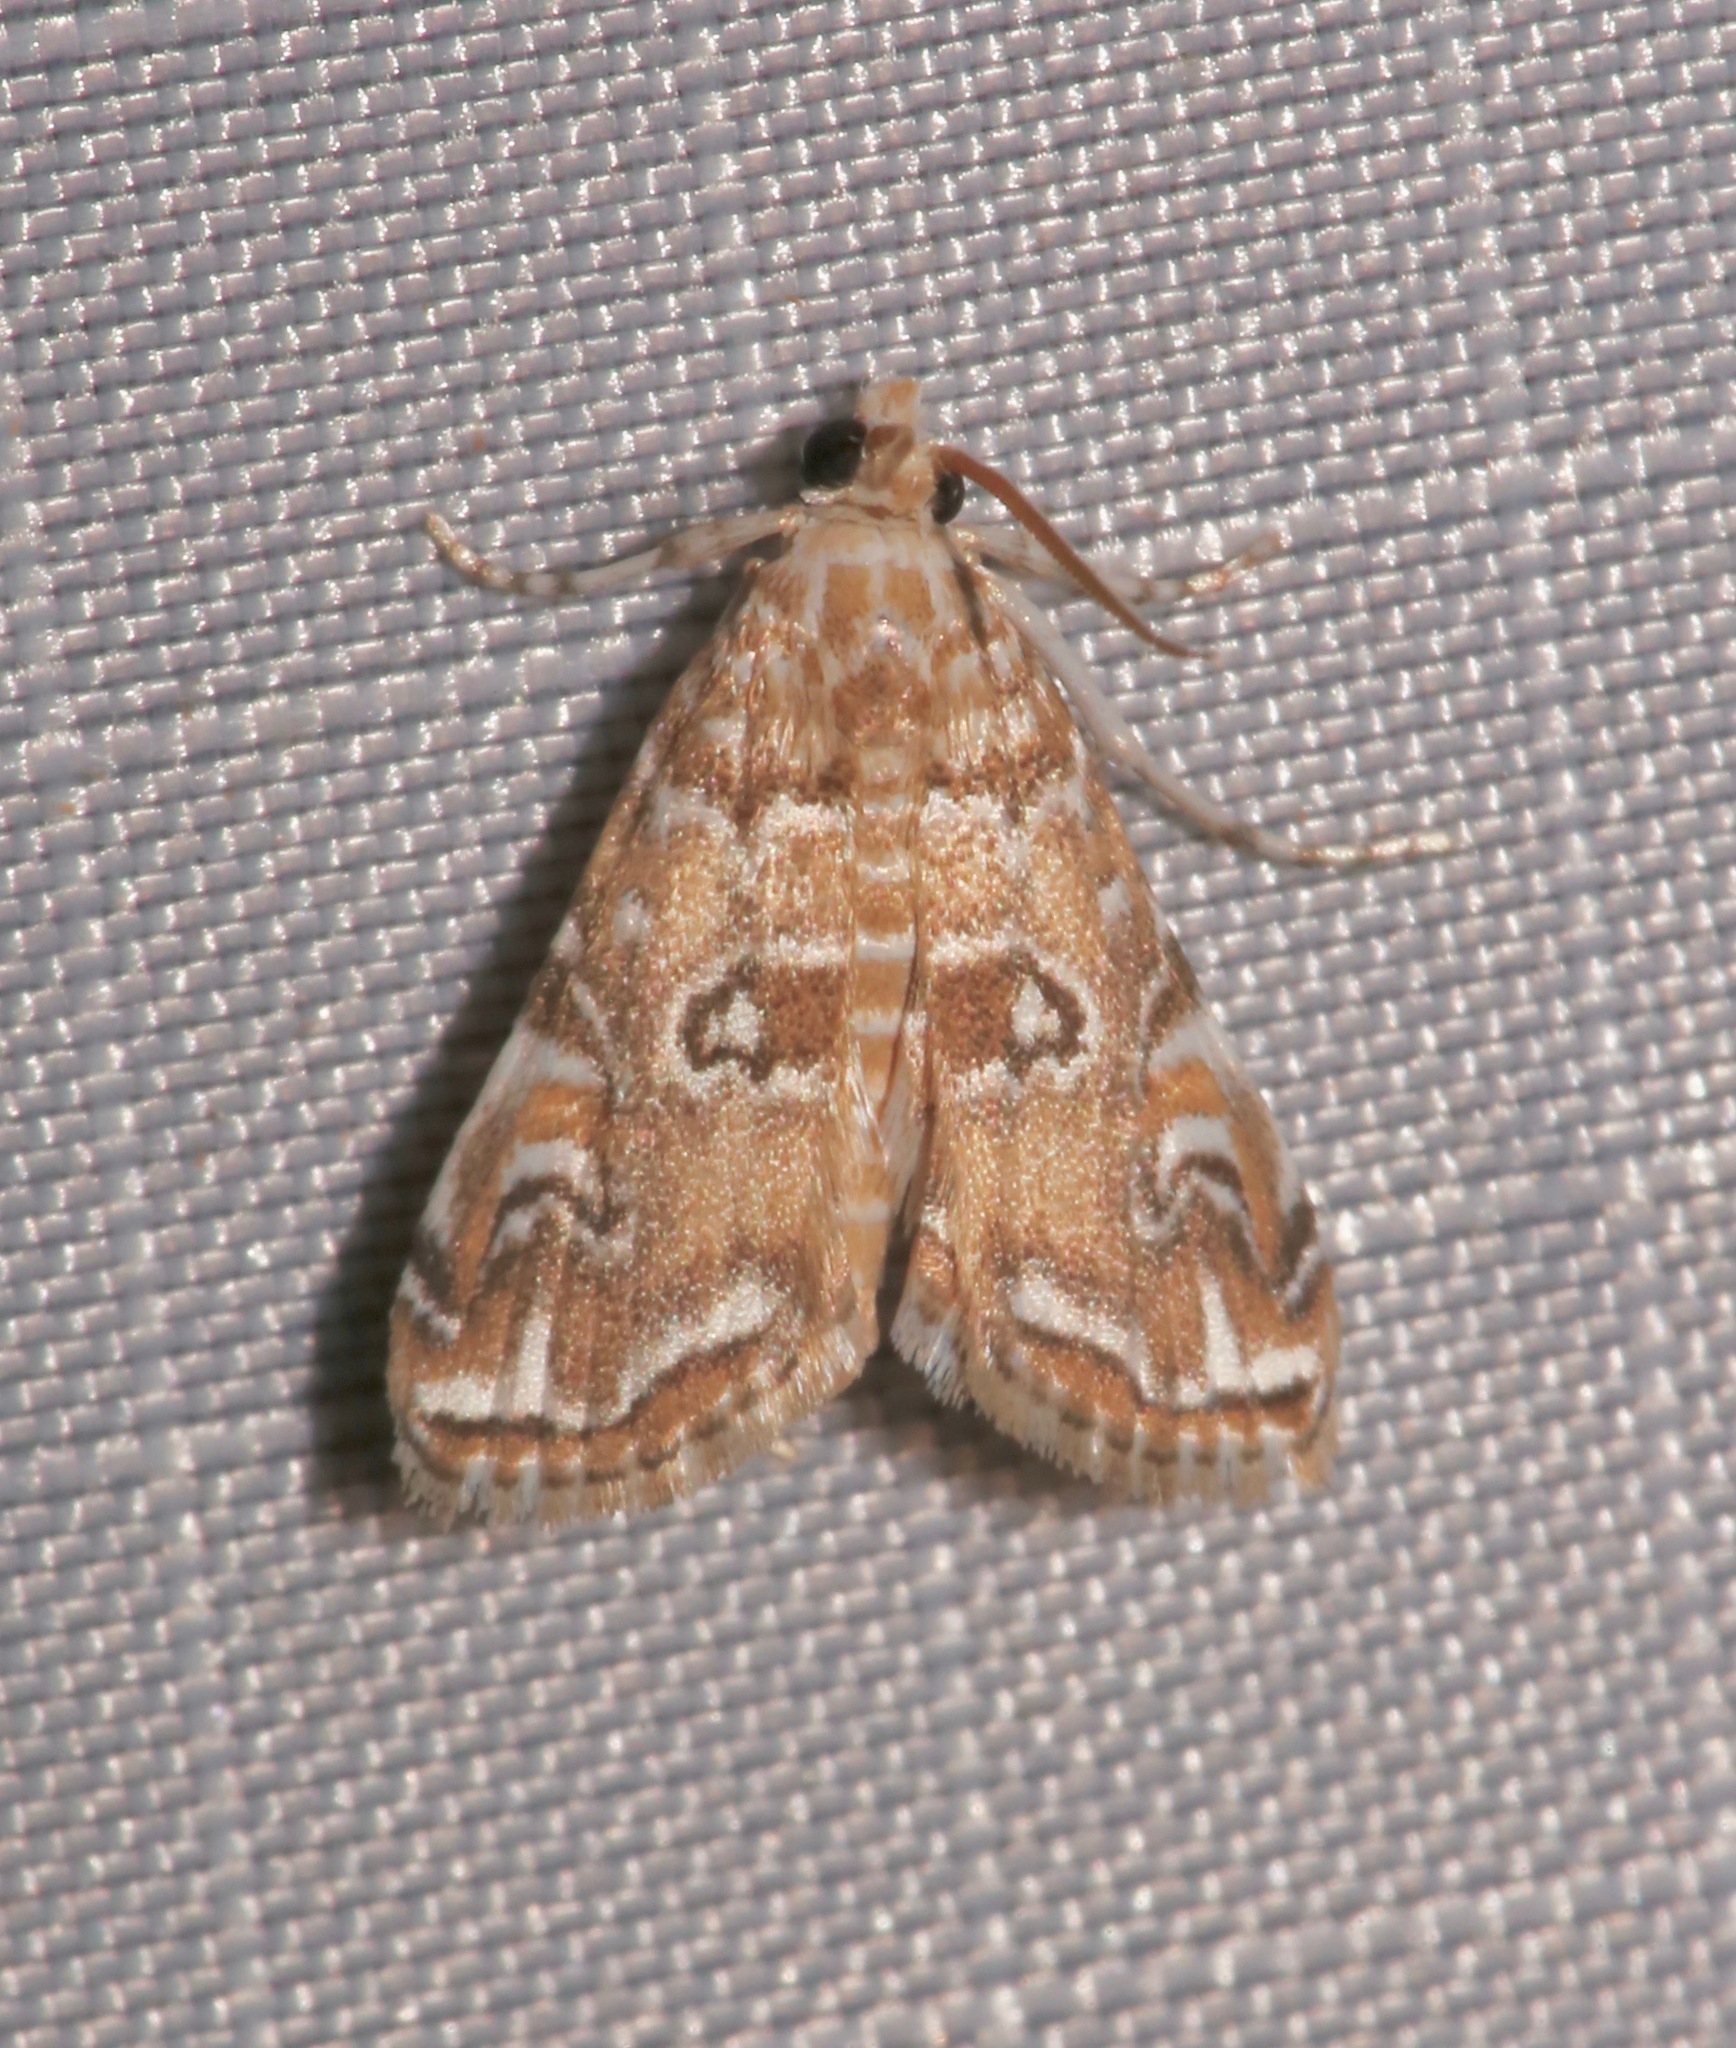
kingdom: Animalia
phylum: Arthropoda
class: Insecta
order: Lepidoptera
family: Crambidae
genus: Elophila
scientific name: Elophila gyralis
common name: Waterlily borer moth
